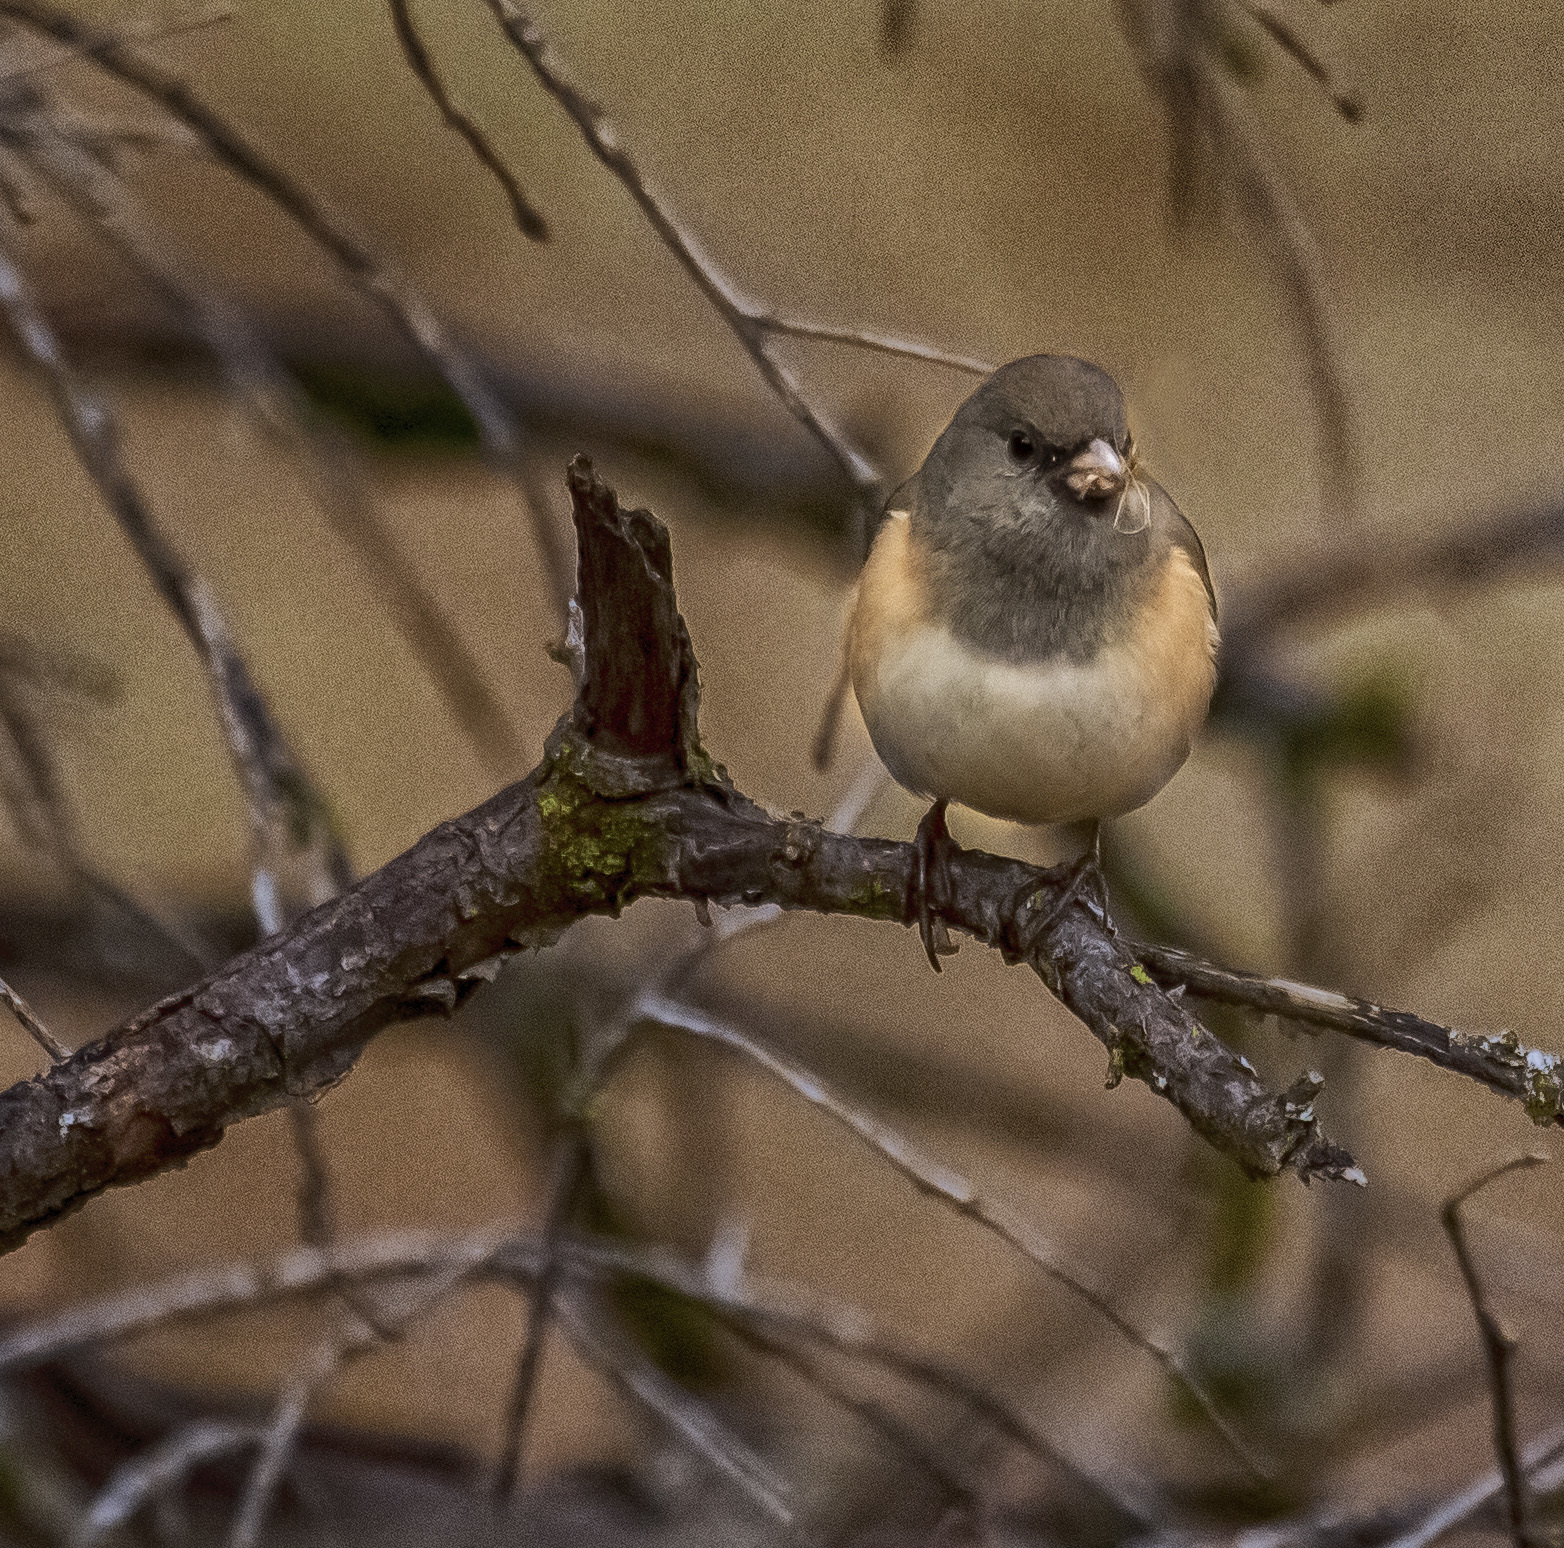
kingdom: Animalia
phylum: Chordata
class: Aves
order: Passeriformes
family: Passerellidae
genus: Junco
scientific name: Junco hyemalis
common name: Dark-eyed junco
